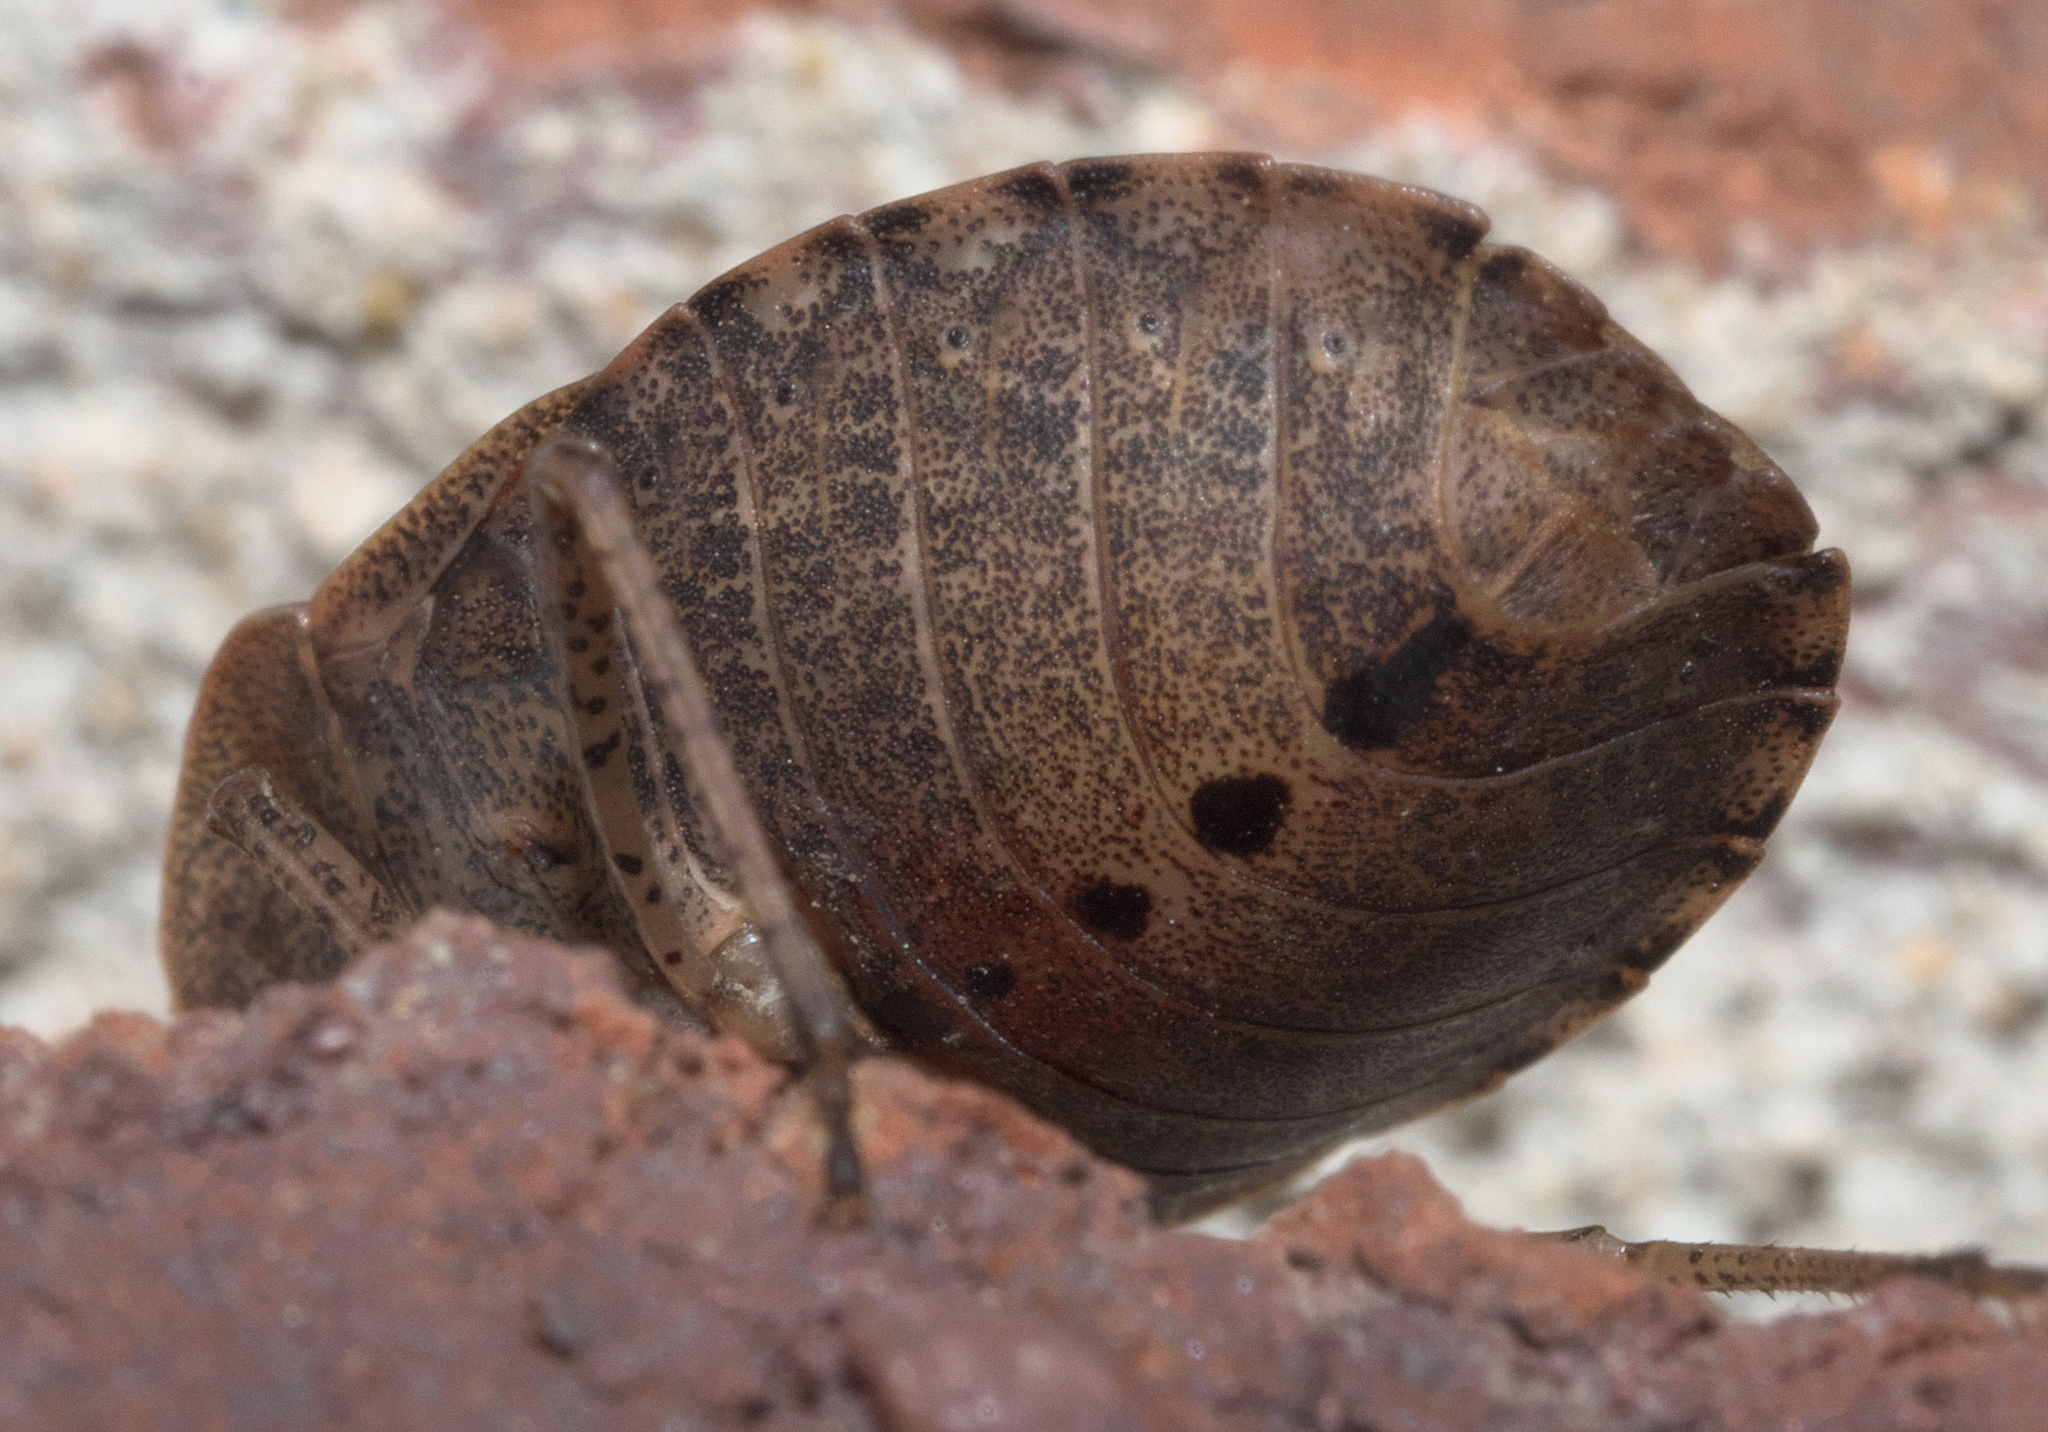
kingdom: Animalia
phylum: Arthropoda
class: Insecta
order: Hemiptera
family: Pentatomidae
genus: Menecles
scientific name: Menecles insertus
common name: Elf shoe stink bug
